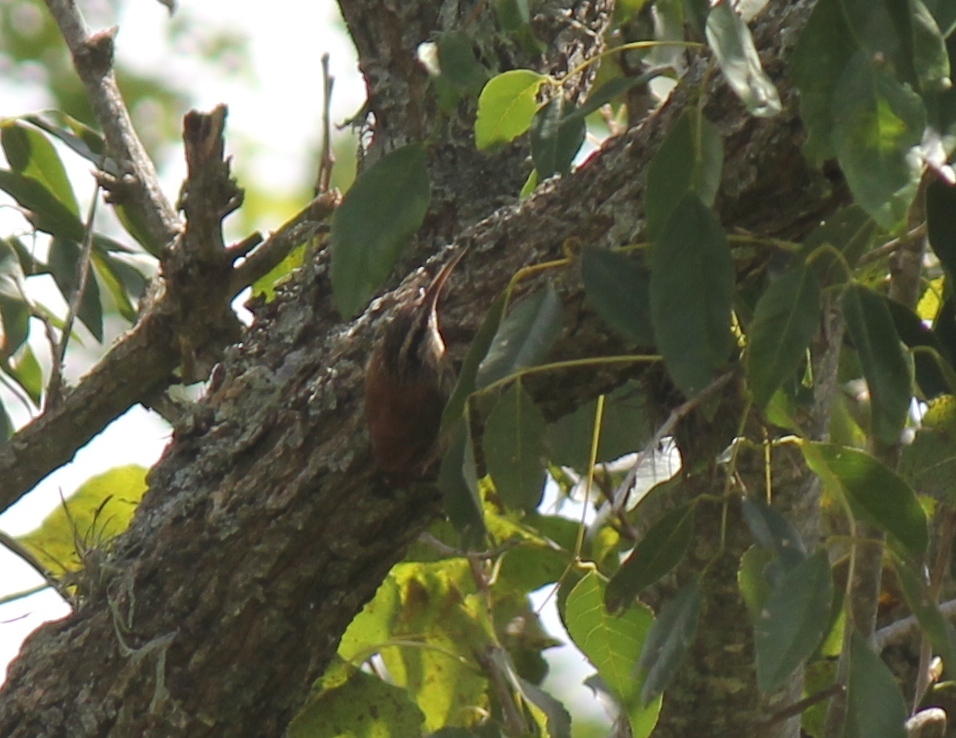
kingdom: Animalia
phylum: Chordata
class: Aves
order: Passeriformes
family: Furnariidae
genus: Lepidocolaptes
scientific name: Lepidocolaptes angustirostris
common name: Narrow-billed woodcreeper
